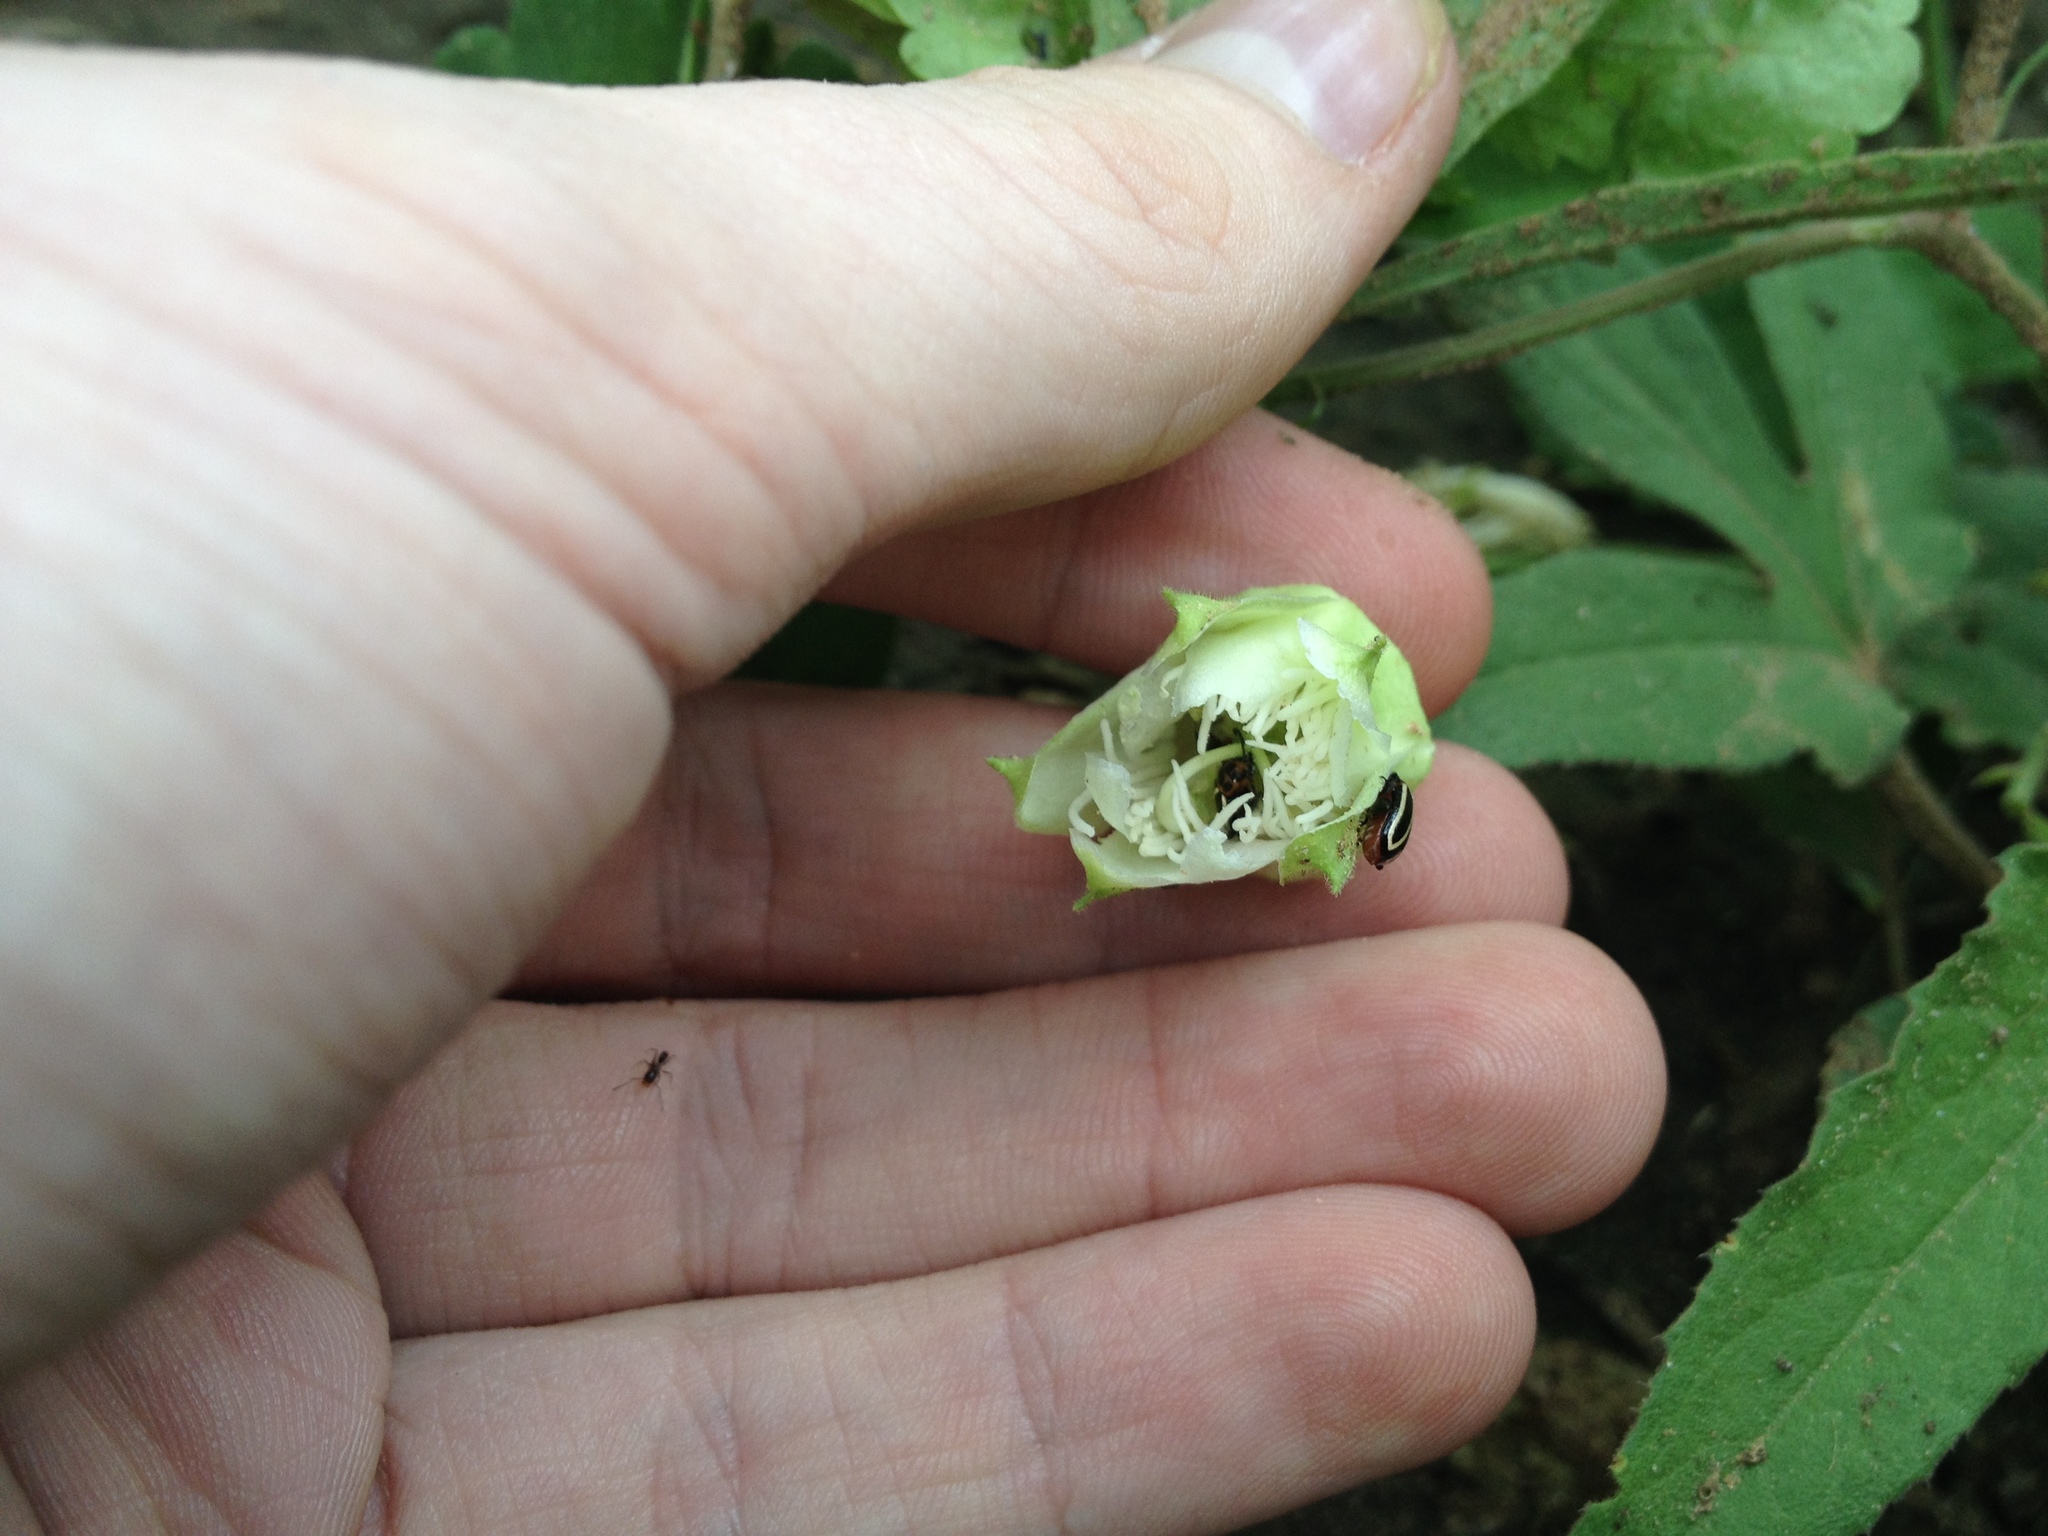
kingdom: Plantae
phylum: Tracheophyta
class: Magnoliopsida
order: Malpighiales
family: Passifloraceae
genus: Passiflora
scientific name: Passiflora palmatisecta
